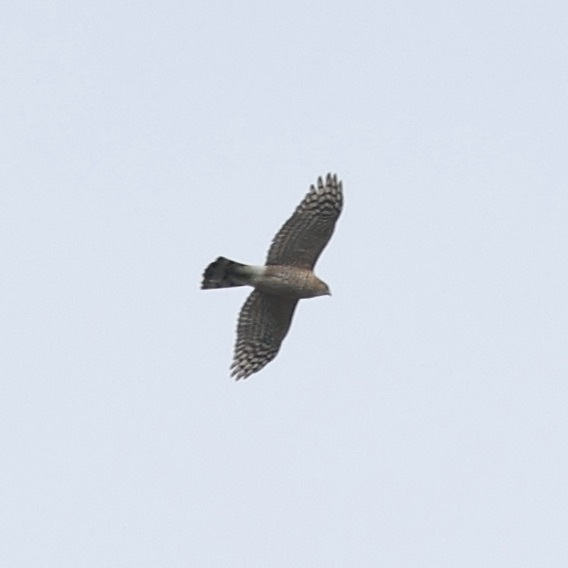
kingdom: Animalia
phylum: Chordata
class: Aves
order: Accipitriformes
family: Accipitridae
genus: Accipiter
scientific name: Accipiter cooperii
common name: Cooper's hawk
